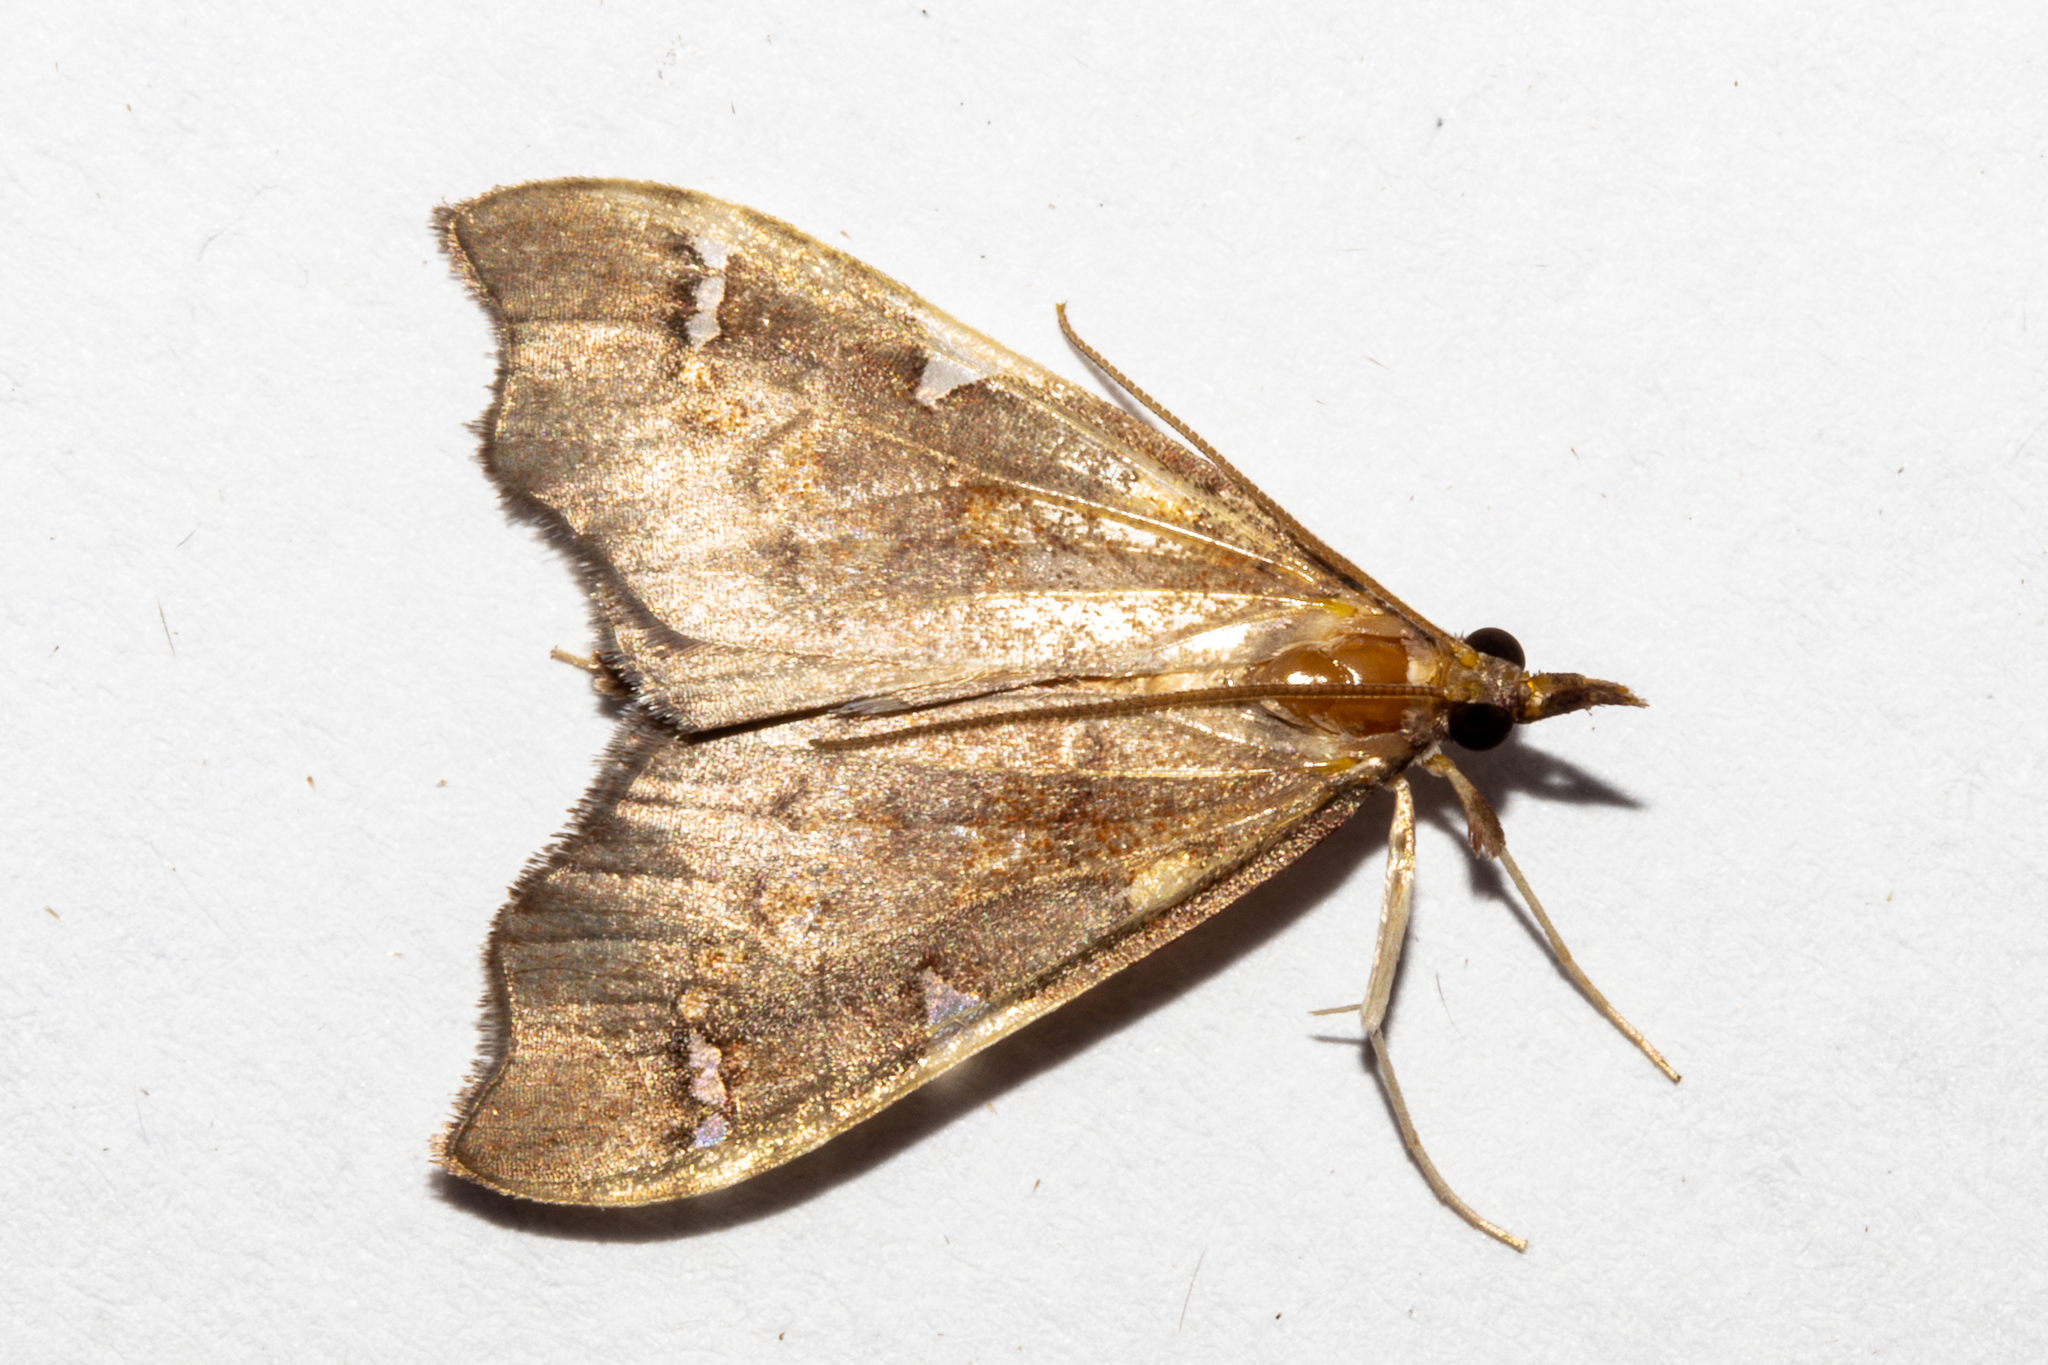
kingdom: Animalia
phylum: Arthropoda
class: Insecta
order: Lepidoptera
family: Crambidae
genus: Deana
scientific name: Deana hybreasalis
